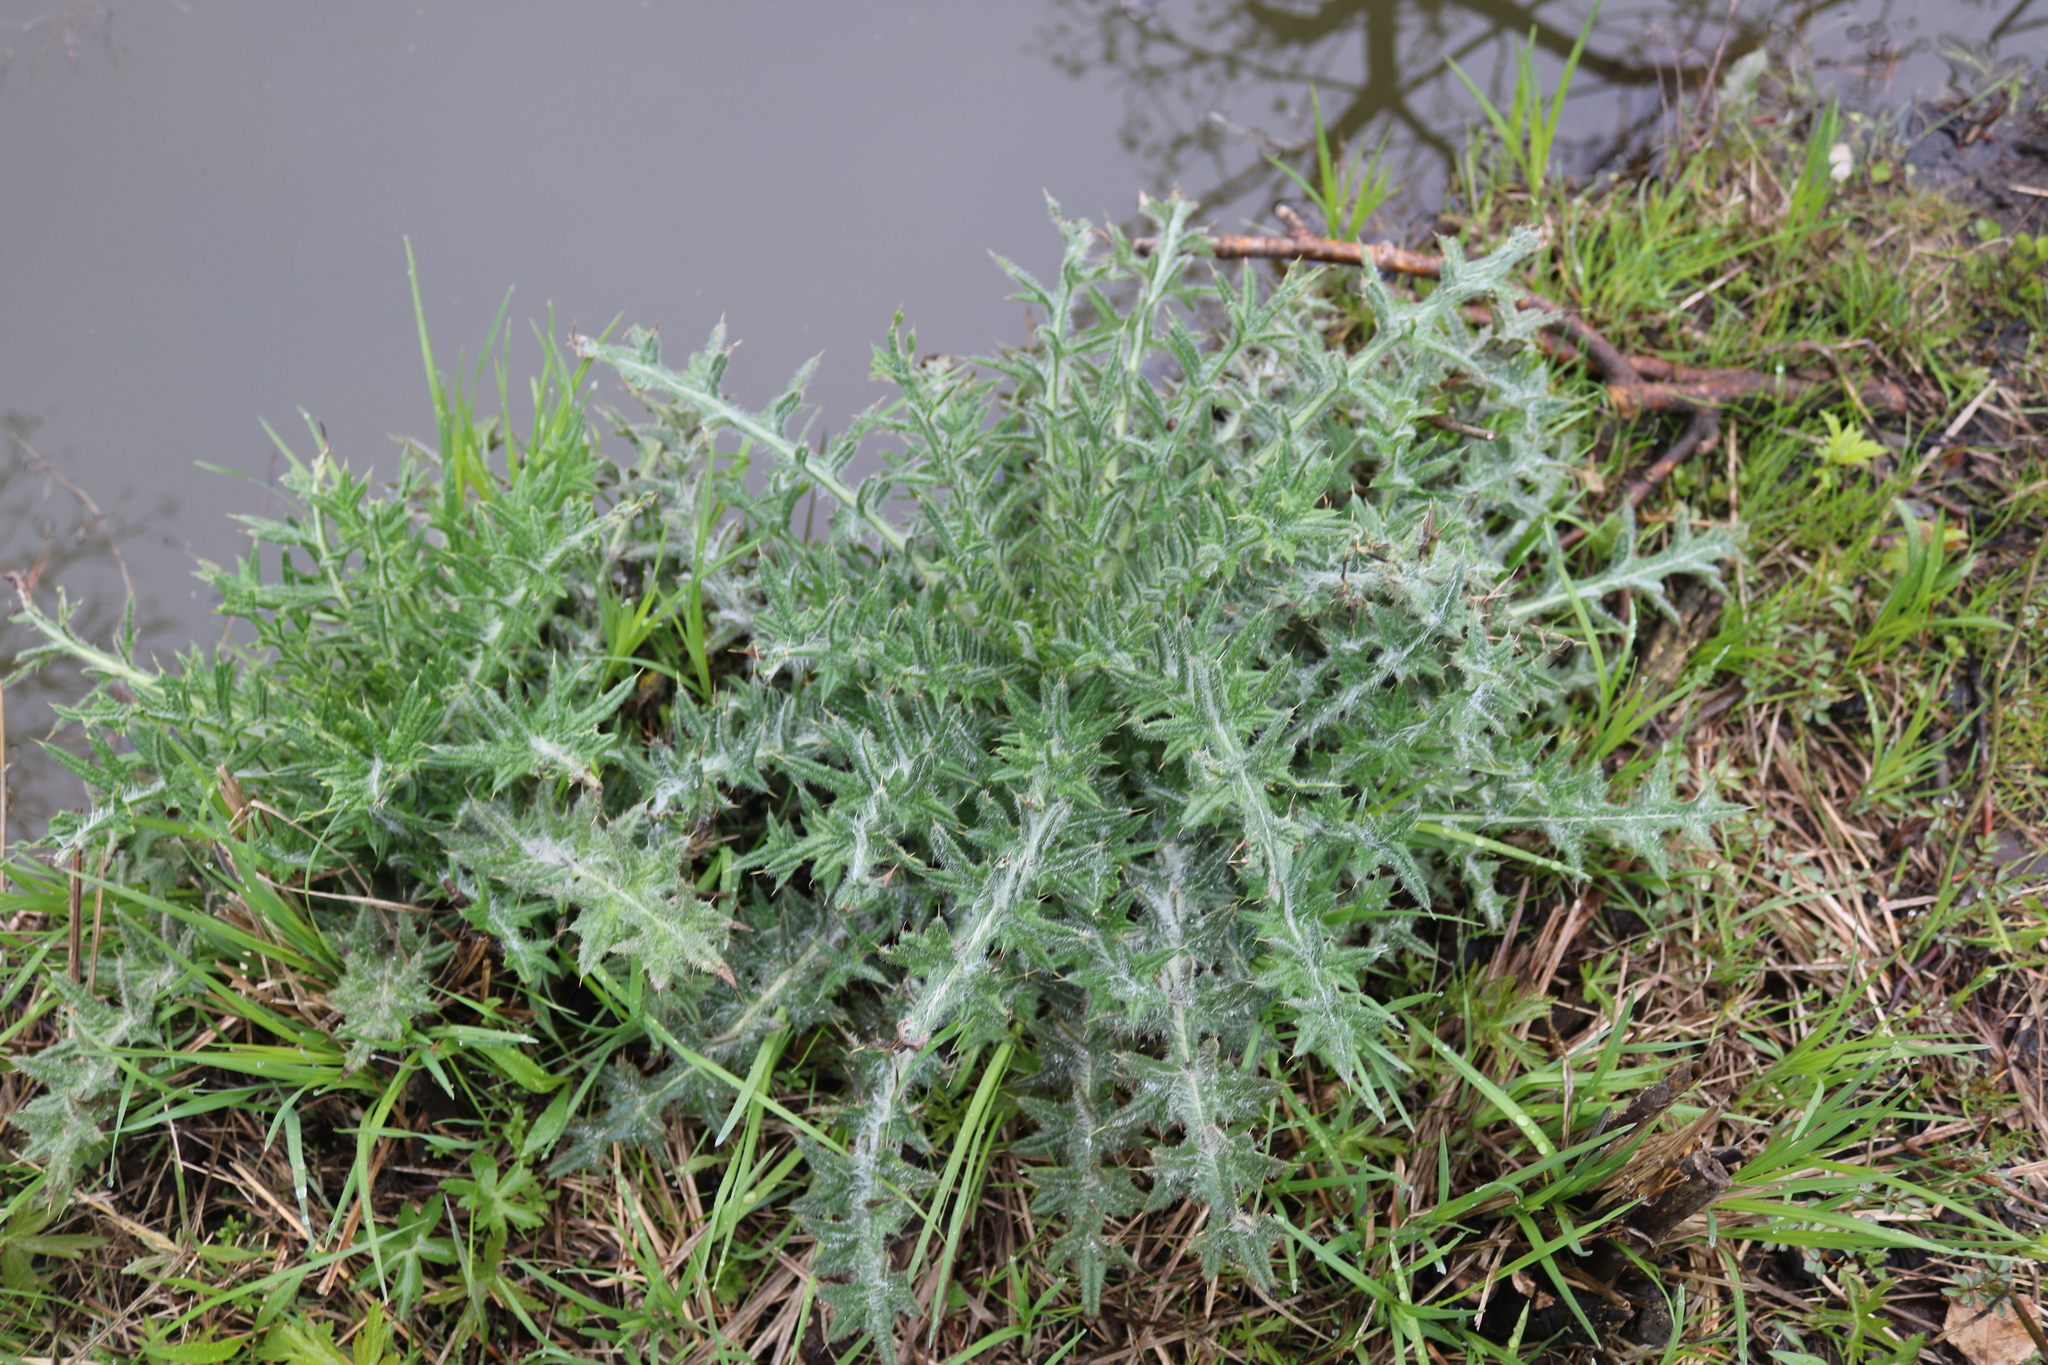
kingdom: Plantae
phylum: Tracheophyta
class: Magnoliopsida
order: Asterales
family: Asteraceae
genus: Cirsium
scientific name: Cirsium vulgare
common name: Bull thistle
